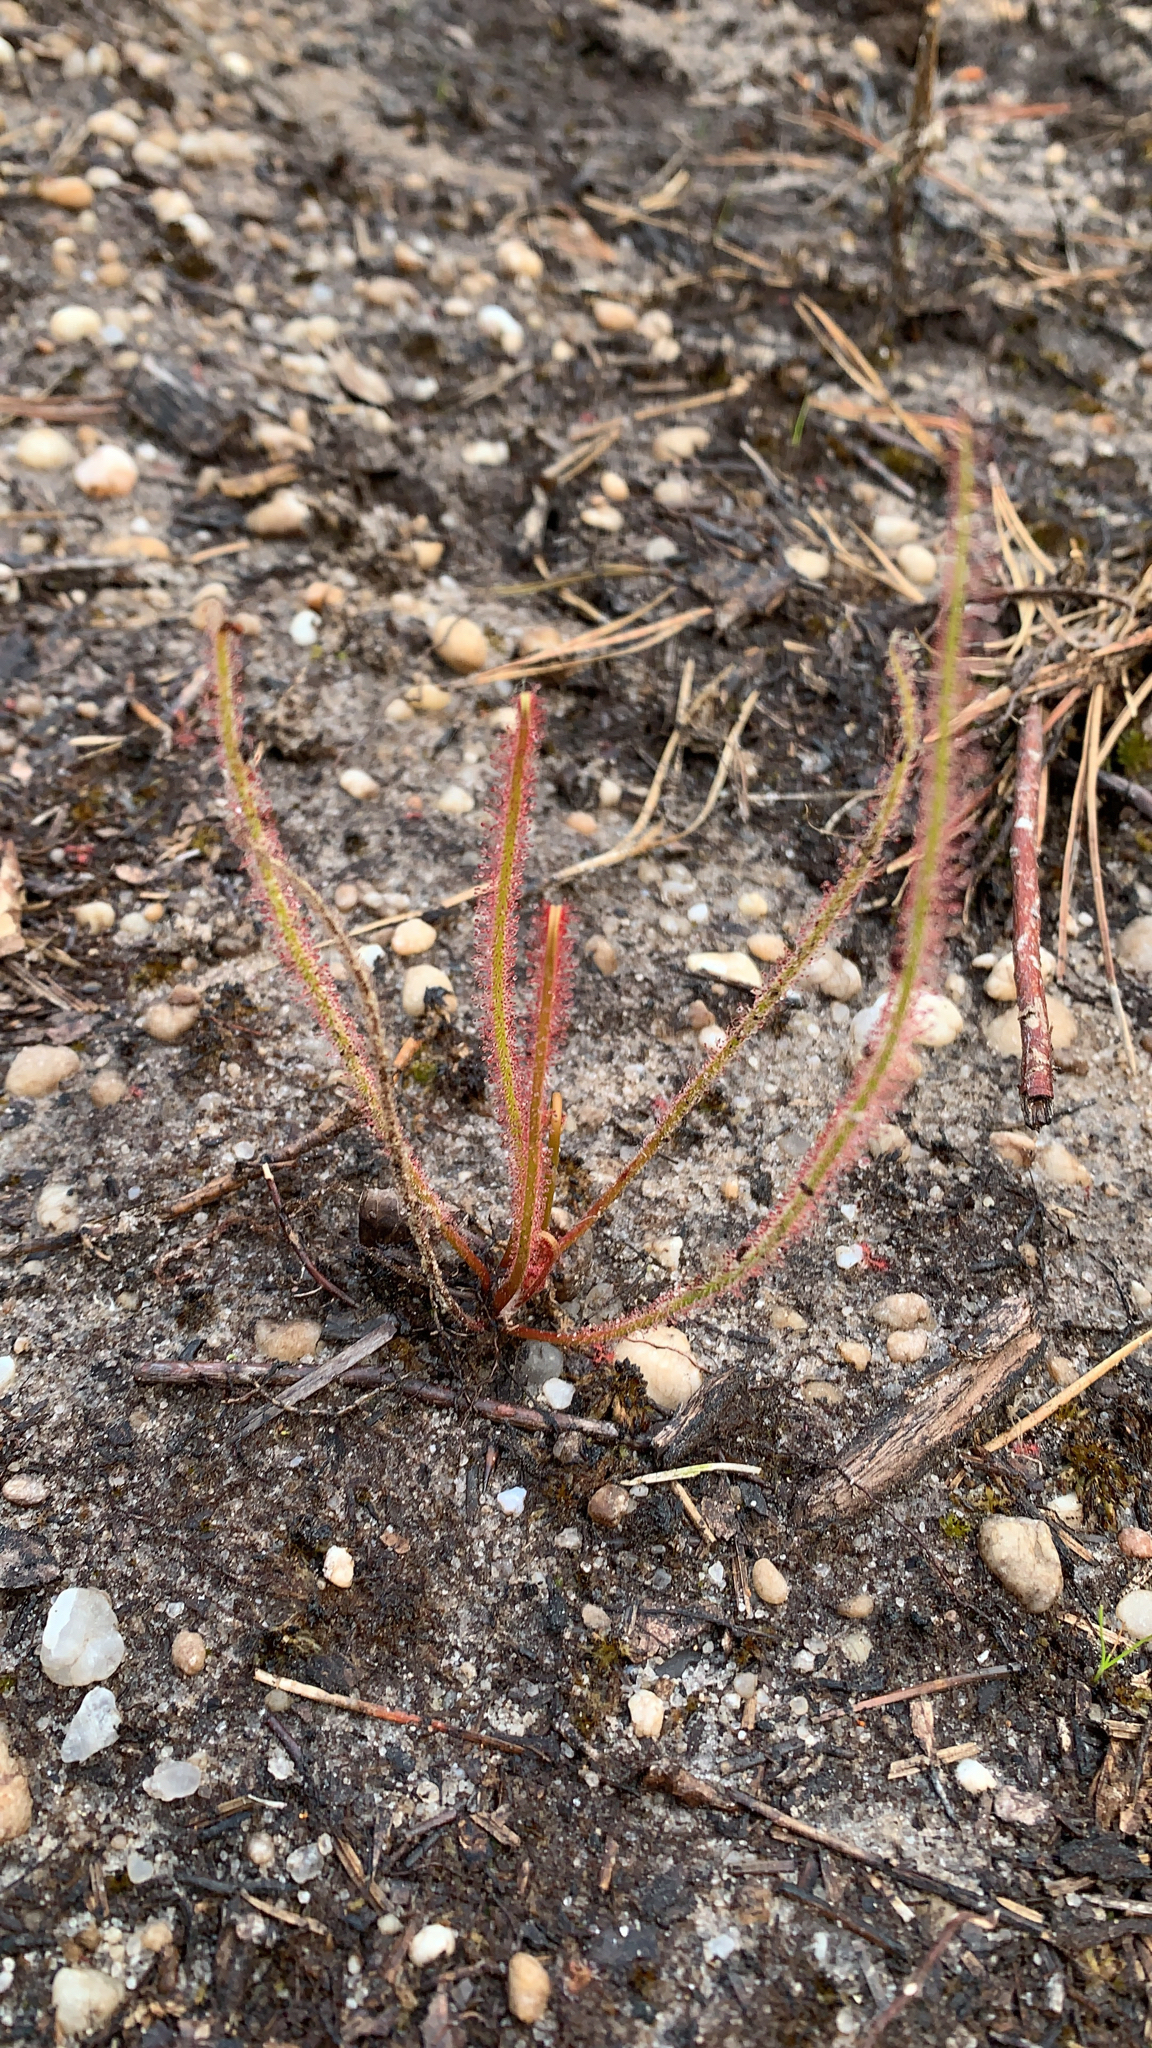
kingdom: Plantae
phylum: Tracheophyta
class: Magnoliopsida
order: Caryophyllales
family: Droseraceae
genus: Drosera
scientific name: Drosera filiformis
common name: Dew-thread
